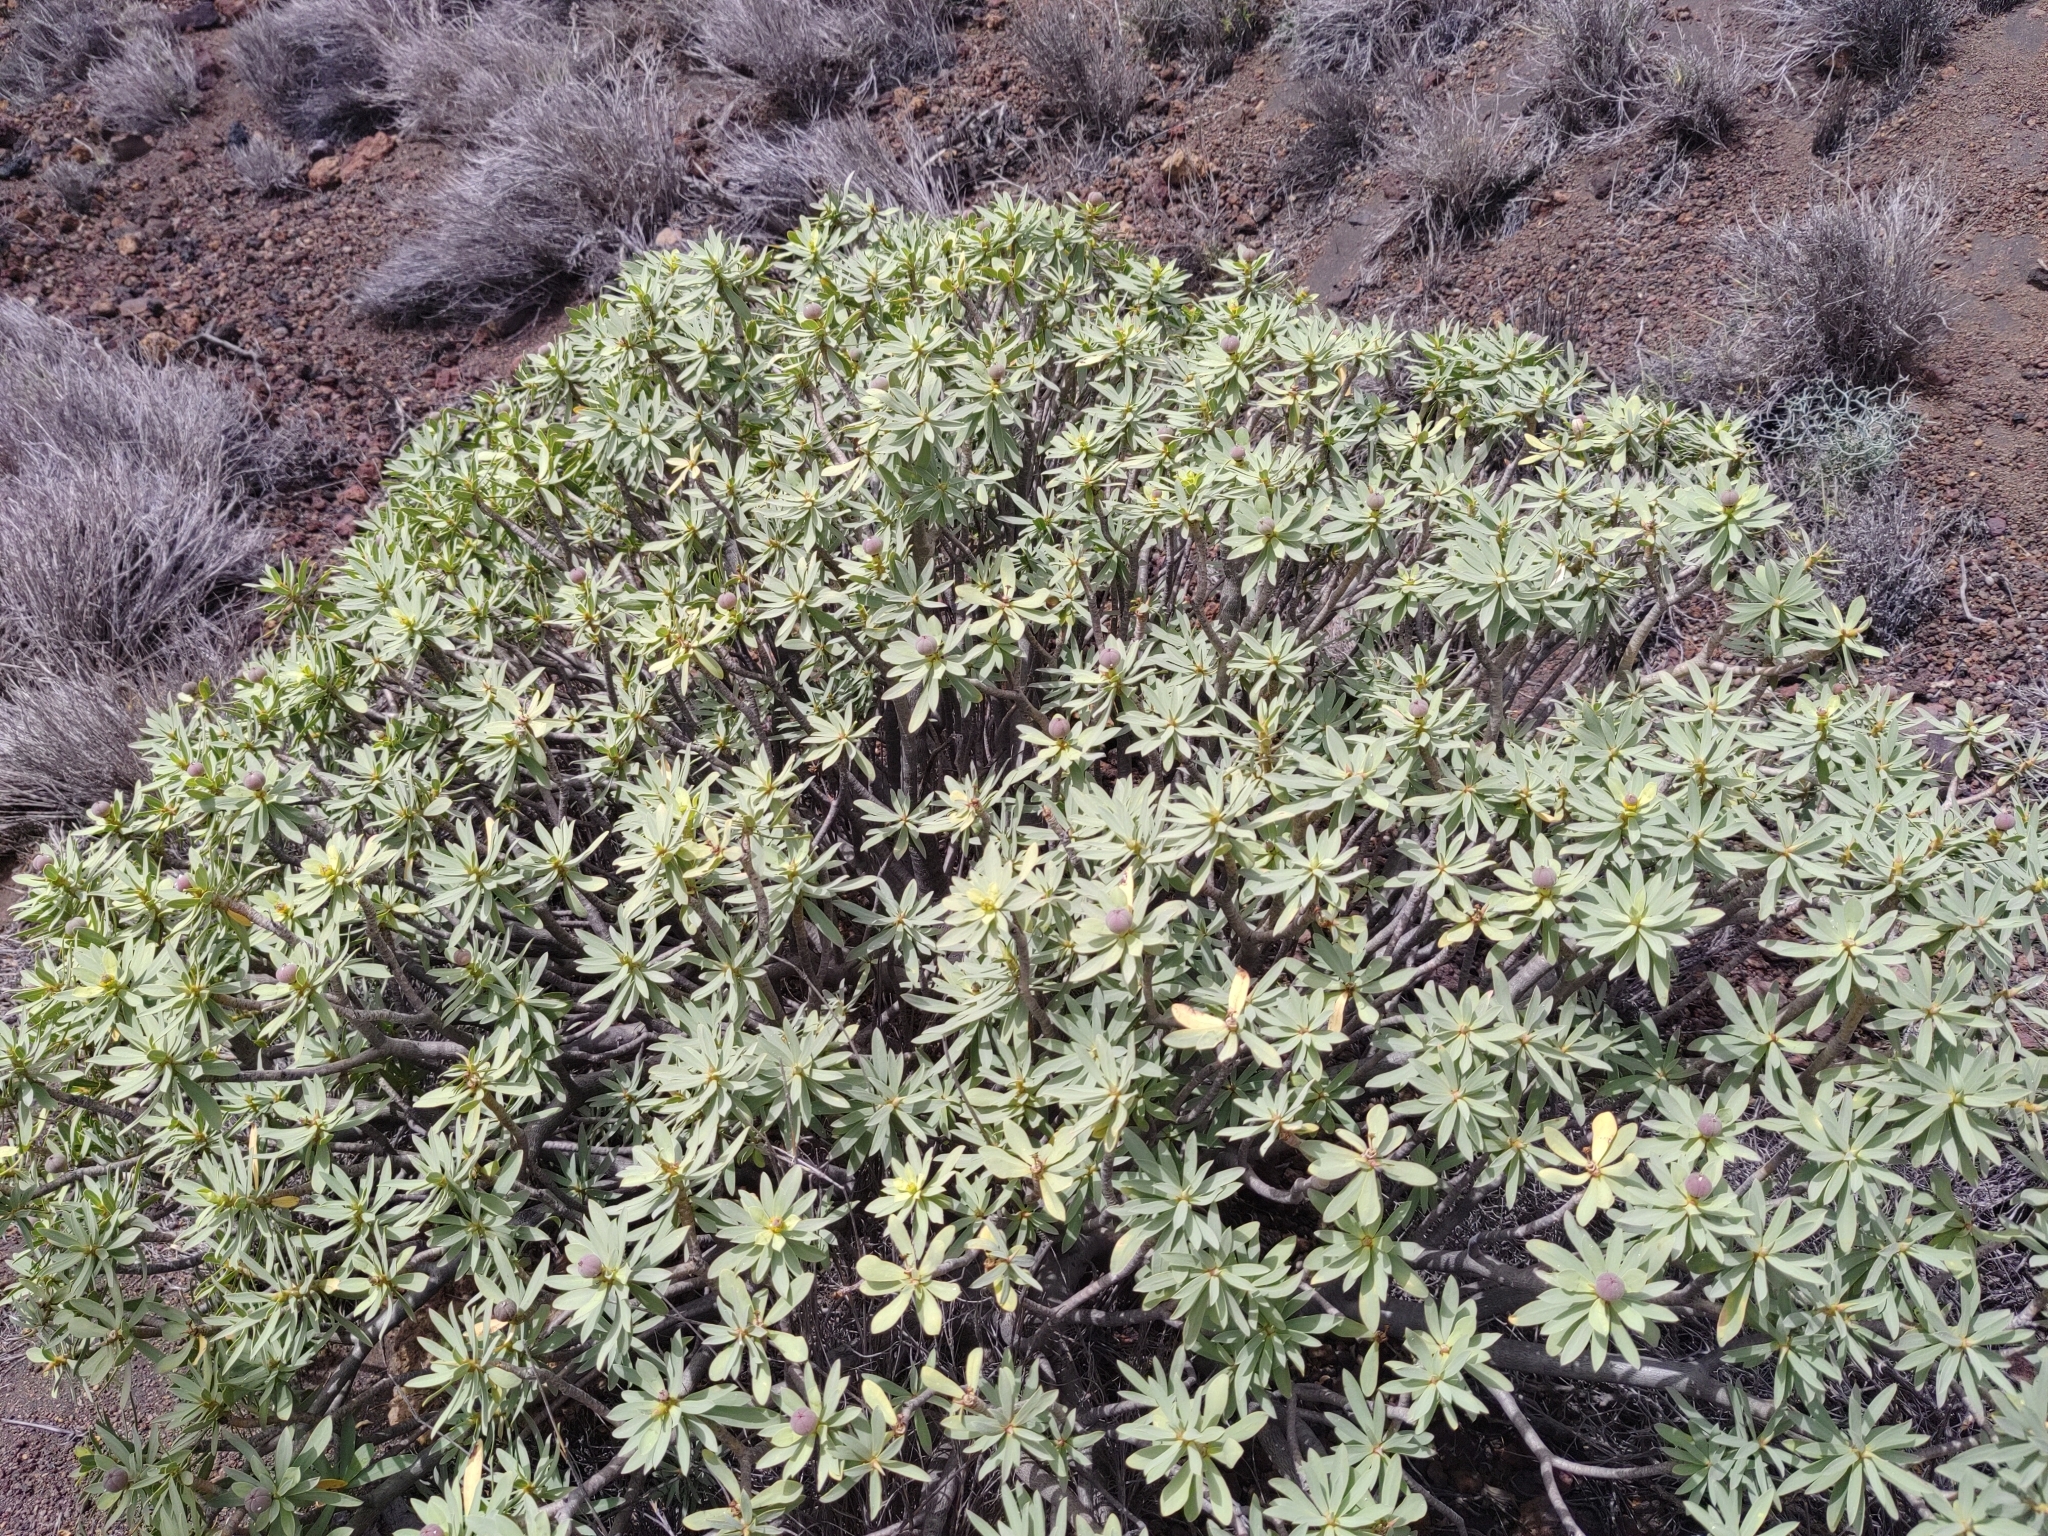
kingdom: Plantae
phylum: Tracheophyta
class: Magnoliopsida
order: Malpighiales
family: Euphorbiaceae
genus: Euphorbia
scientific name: Euphorbia balsamifera
